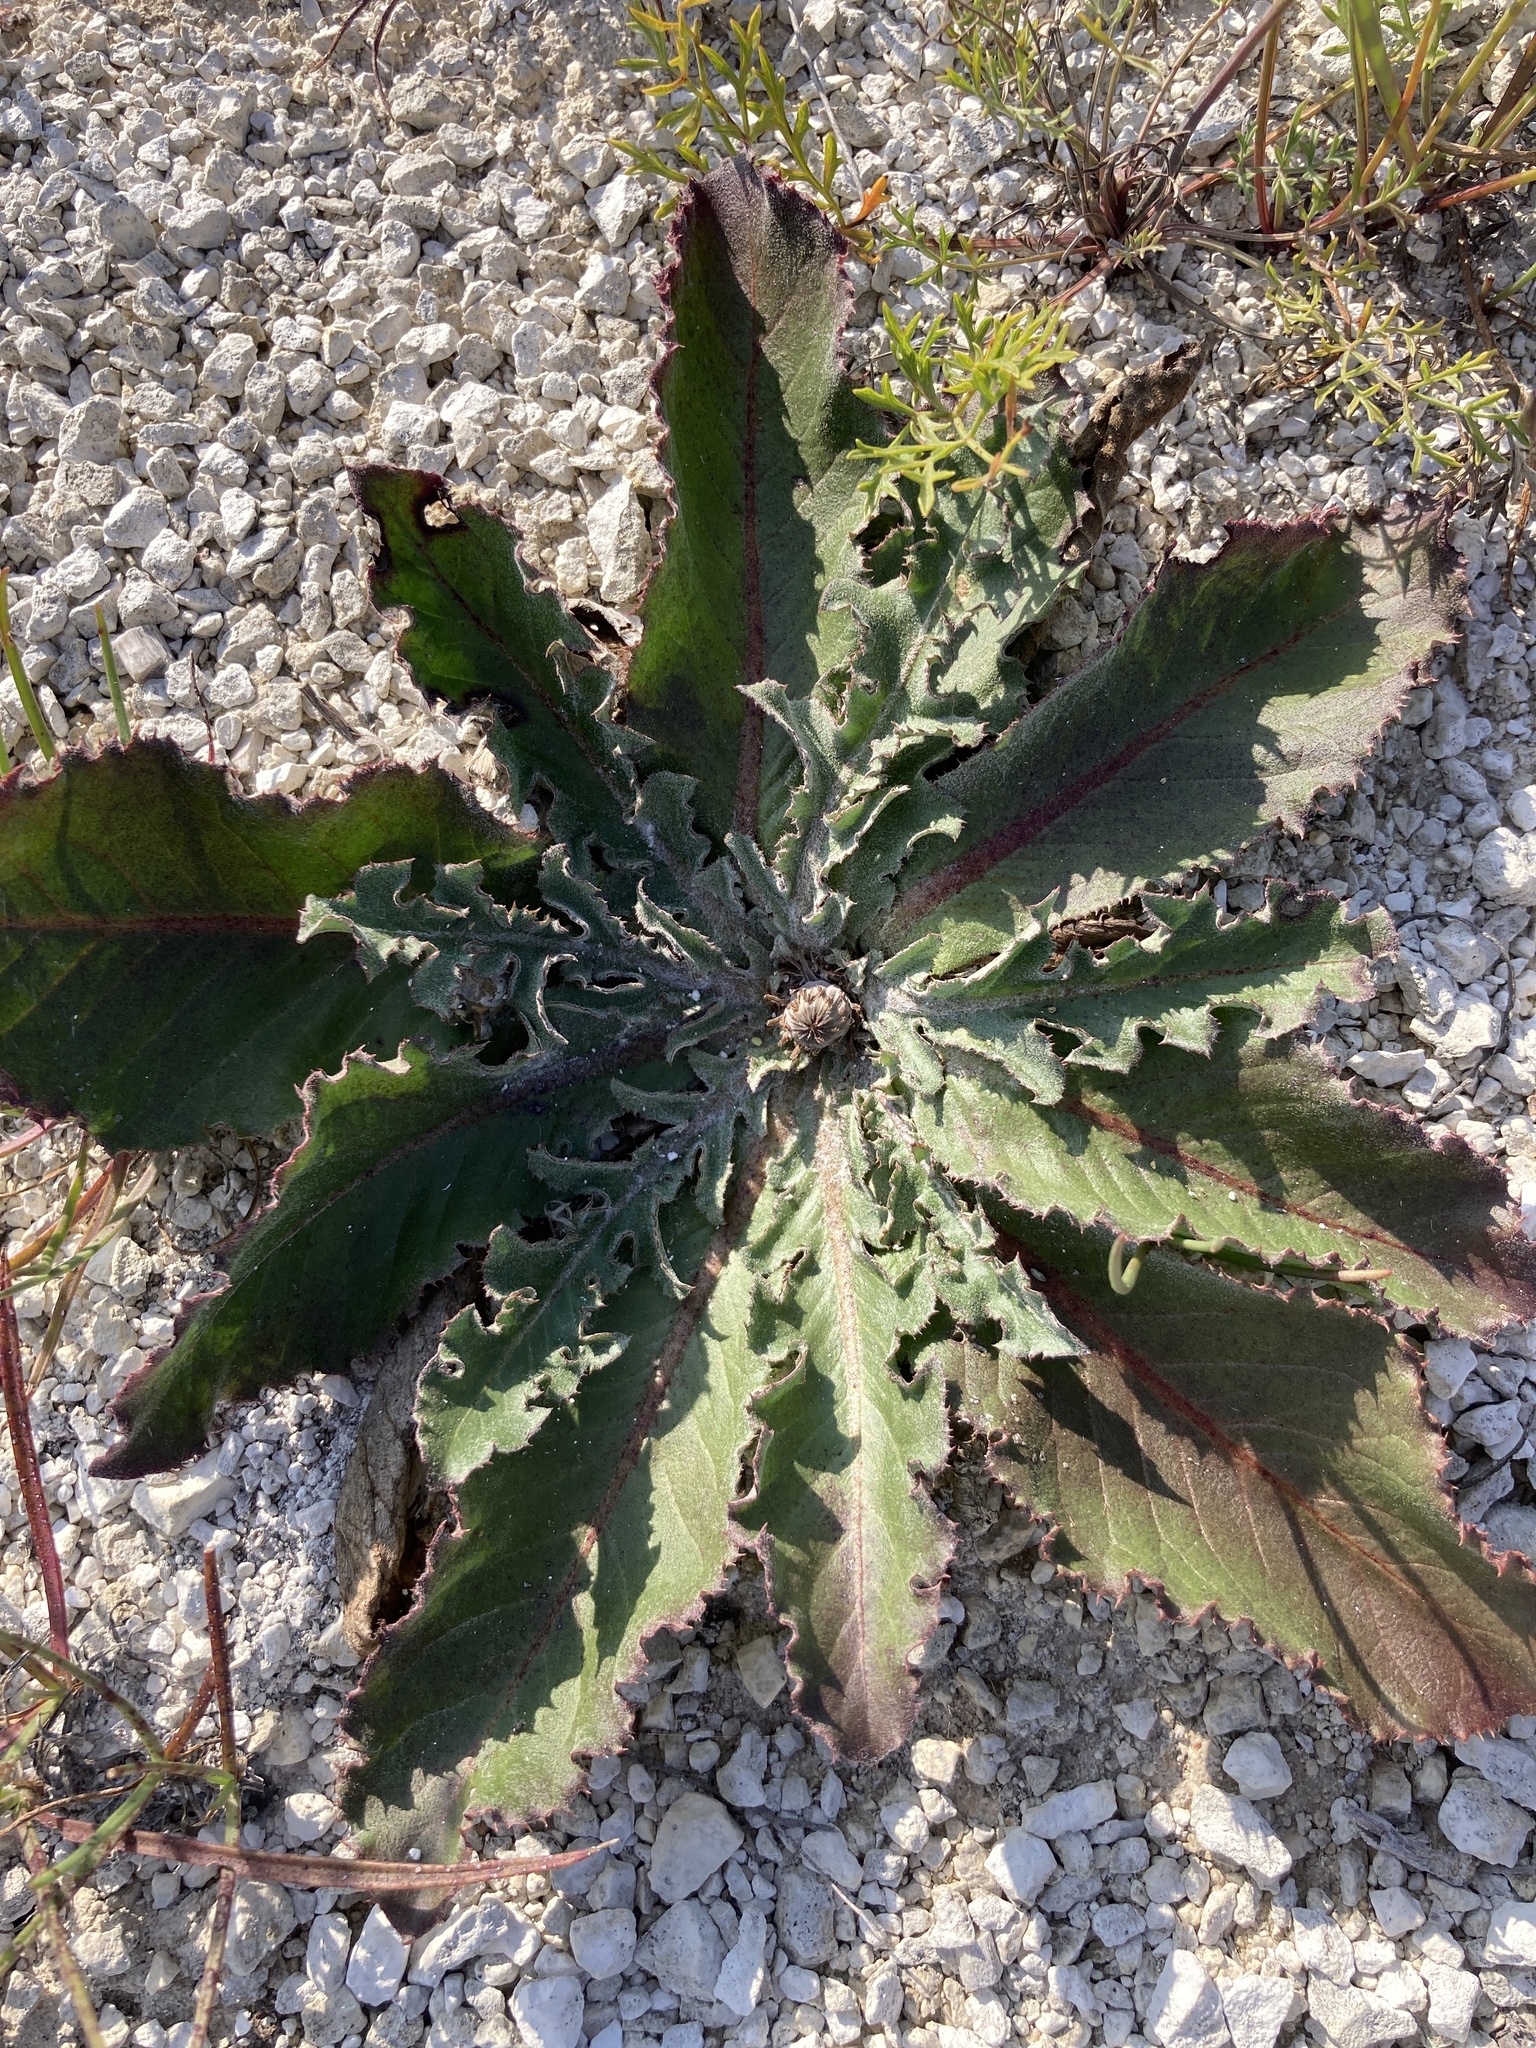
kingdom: Plantae
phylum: Tracheophyta
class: Magnoliopsida
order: Asterales
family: Asteraceae
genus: Taraxacum
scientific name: Taraxacum serotinum
